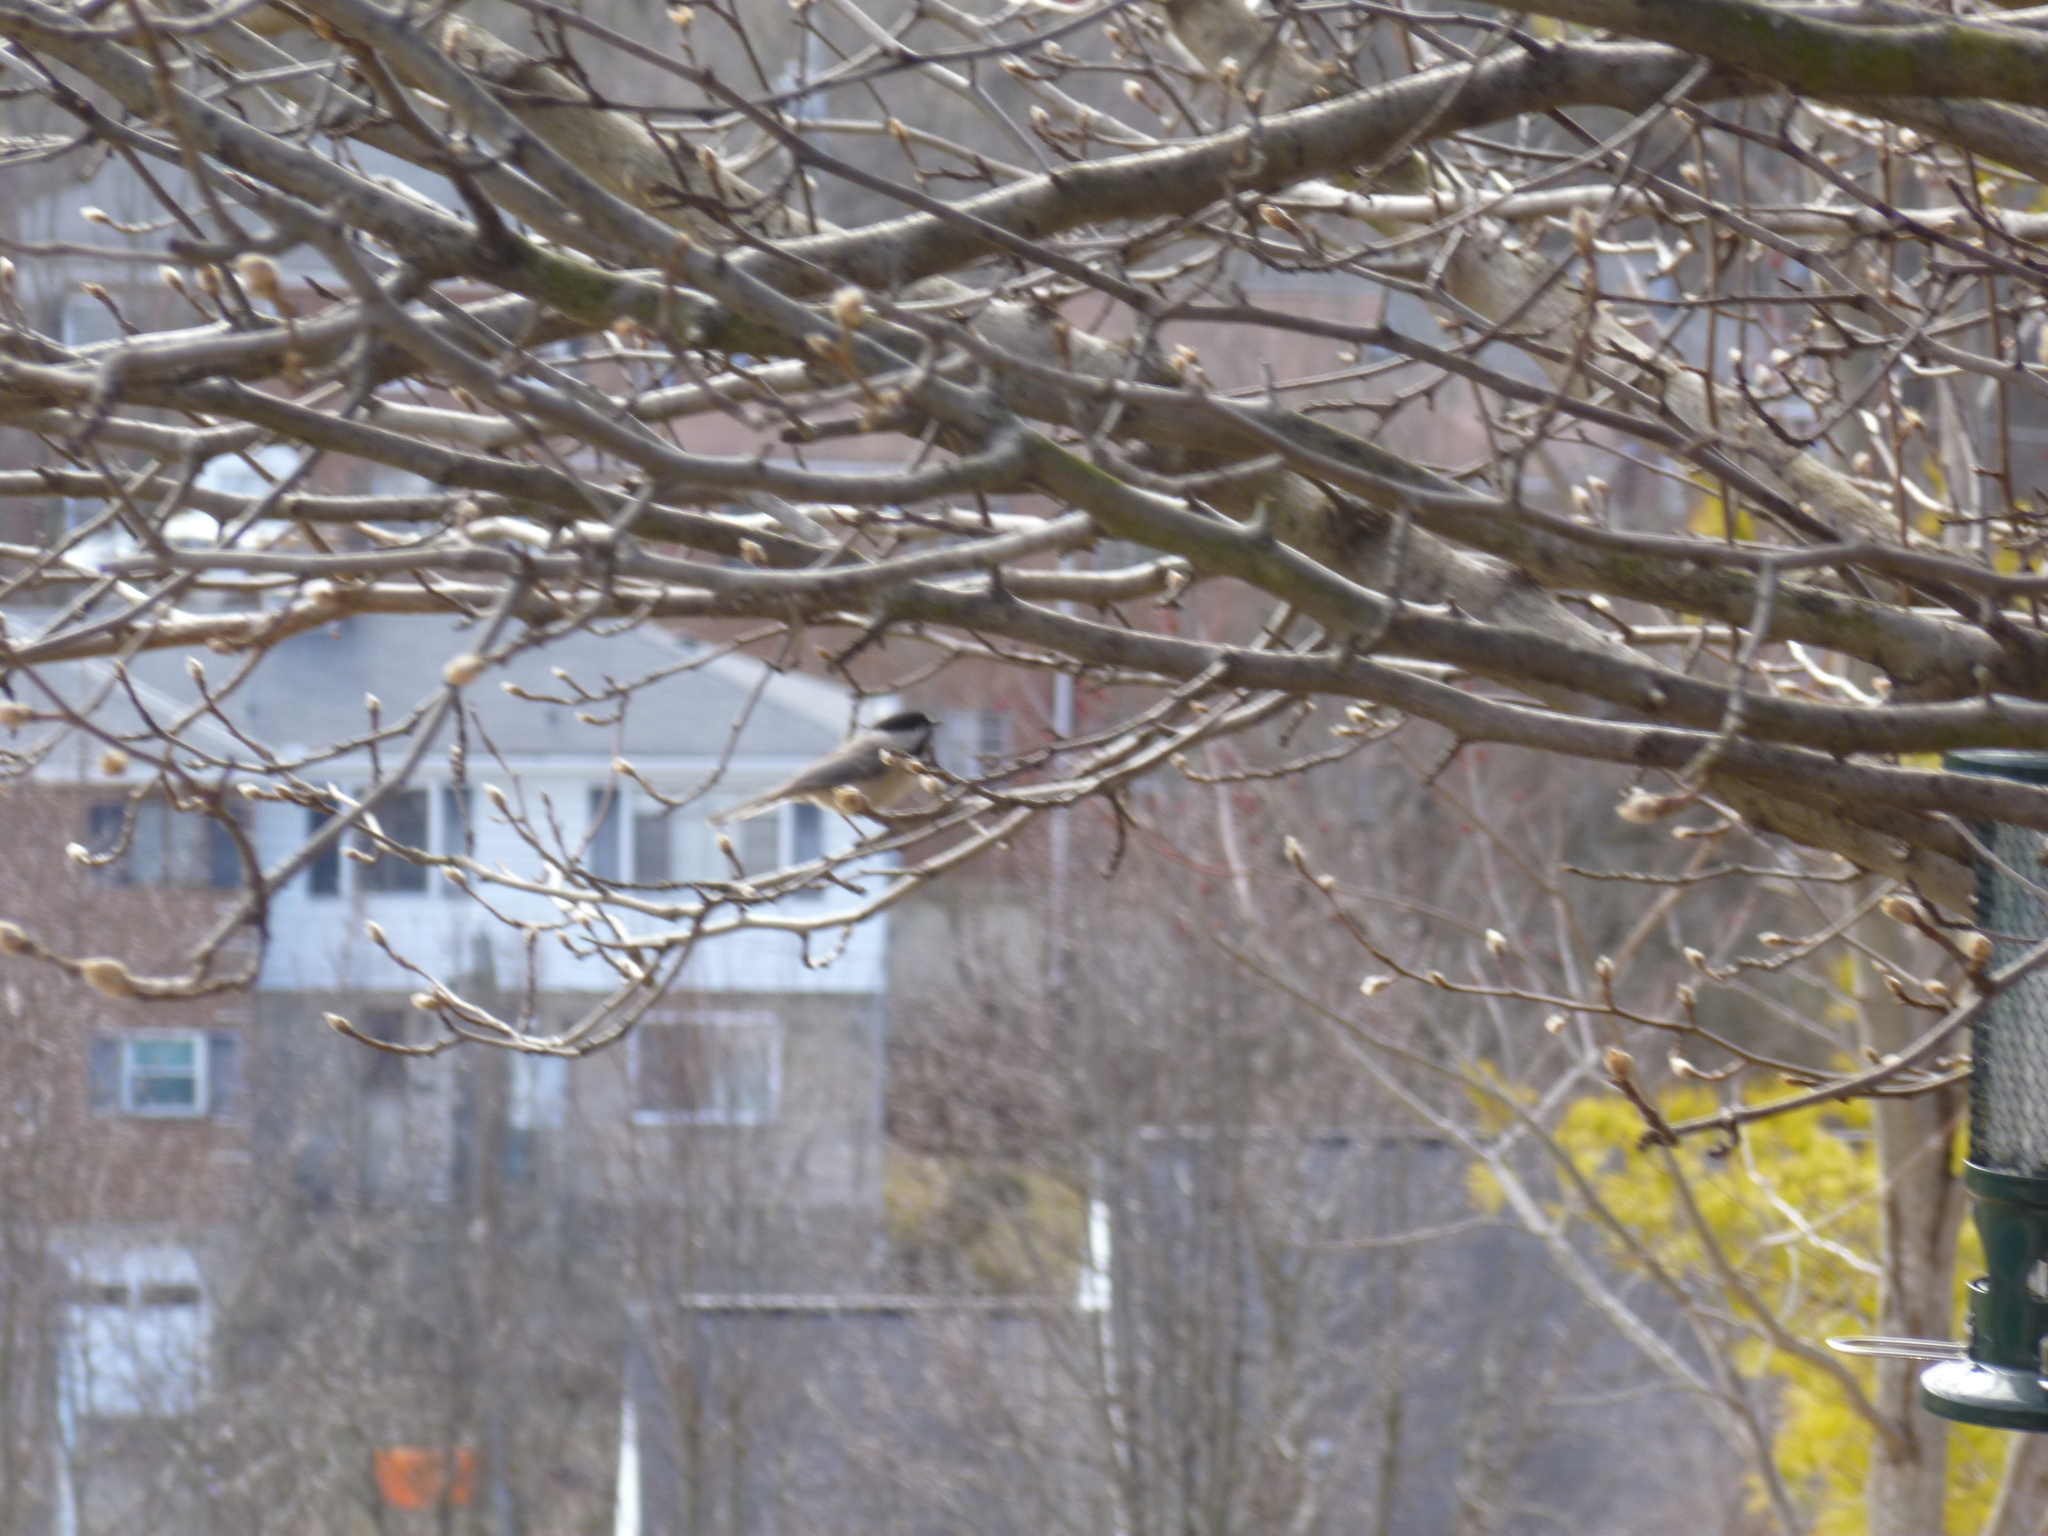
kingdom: Animalia
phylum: Chordata
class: Aves
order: Passeriformes
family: Paridae
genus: Poecile
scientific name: Poecile carolinensis
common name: Carolina chickadee
